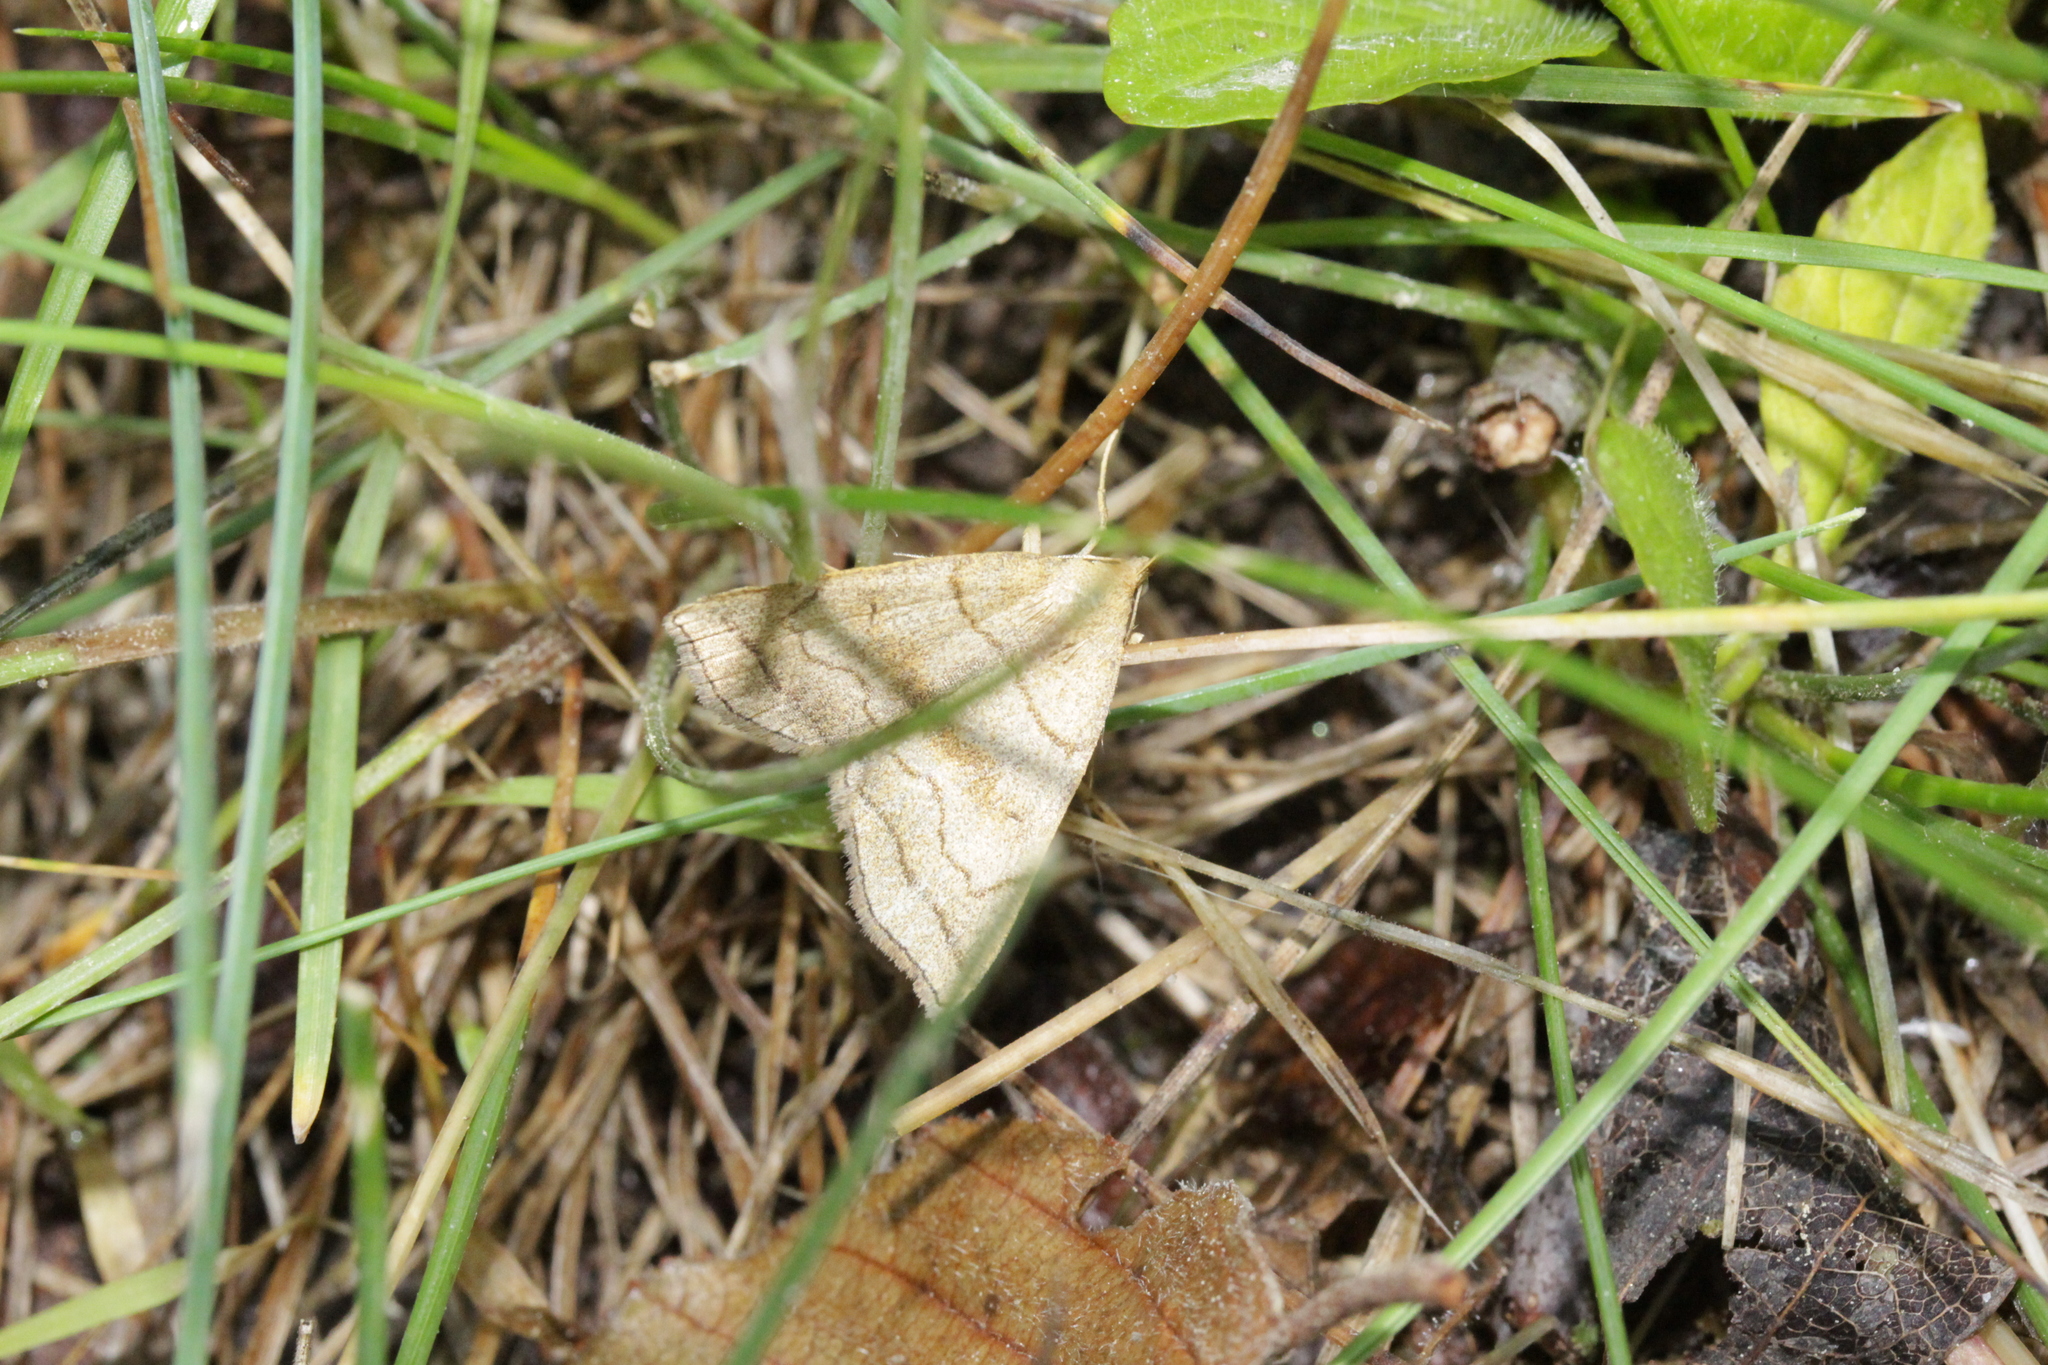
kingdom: Animalia
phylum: Arthropoda
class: Insecta
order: Lepidoptera
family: Erebidae
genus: Herminia
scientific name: Herminia tarsicrinalis
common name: Shaded fan-foot
